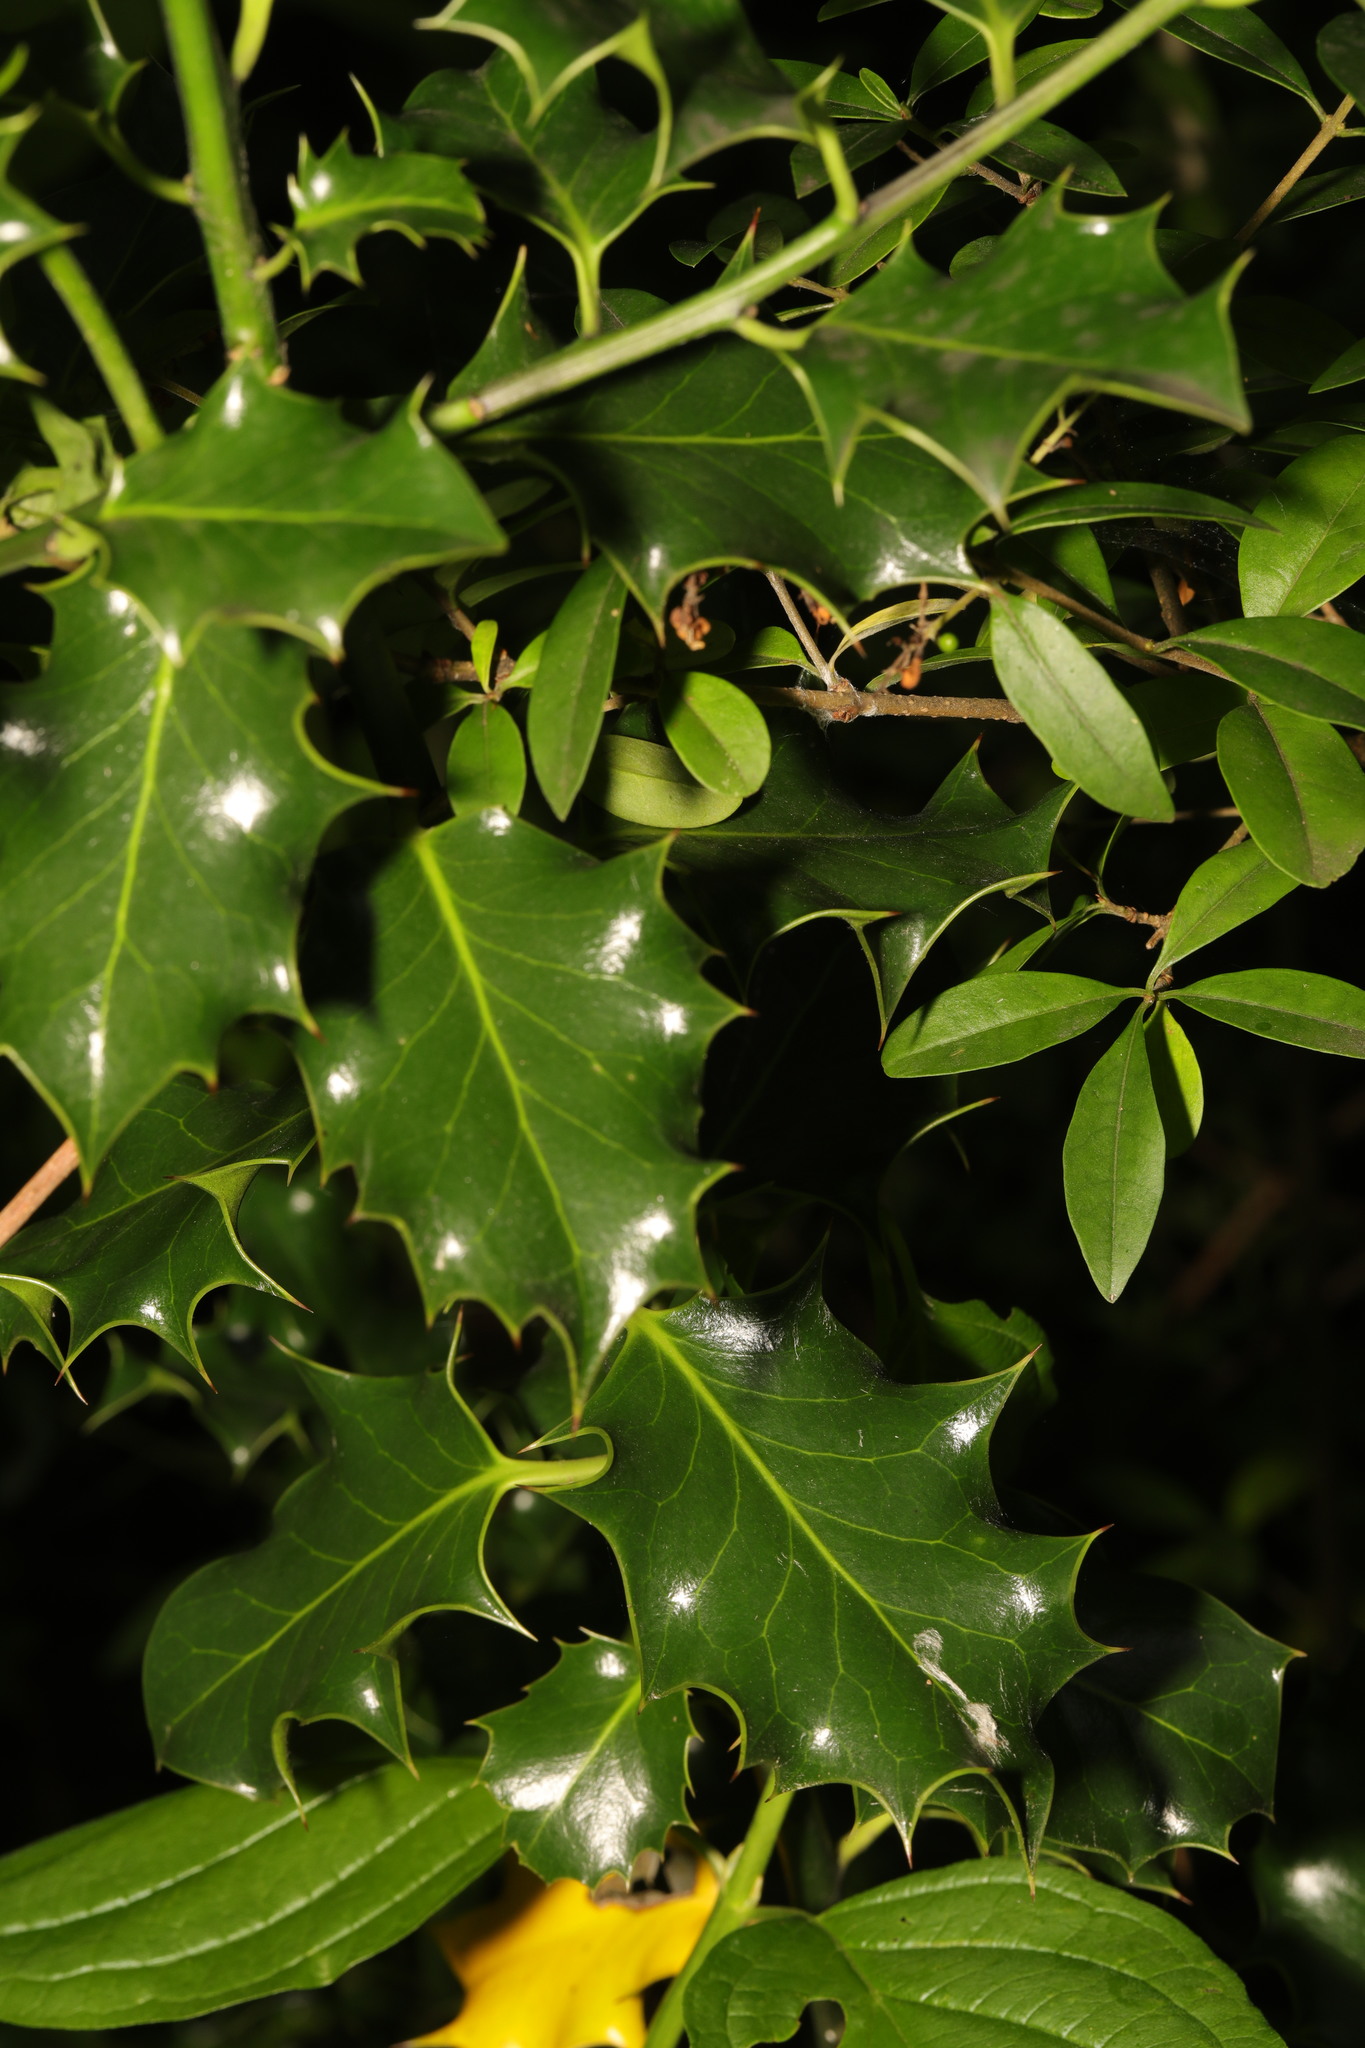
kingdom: Plantae
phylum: Tracheophyta
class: Magnoliopsida
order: Aquifoliales
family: Aquifoliaceae
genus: Ilex
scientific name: Ilex aquifolium
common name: English holly
